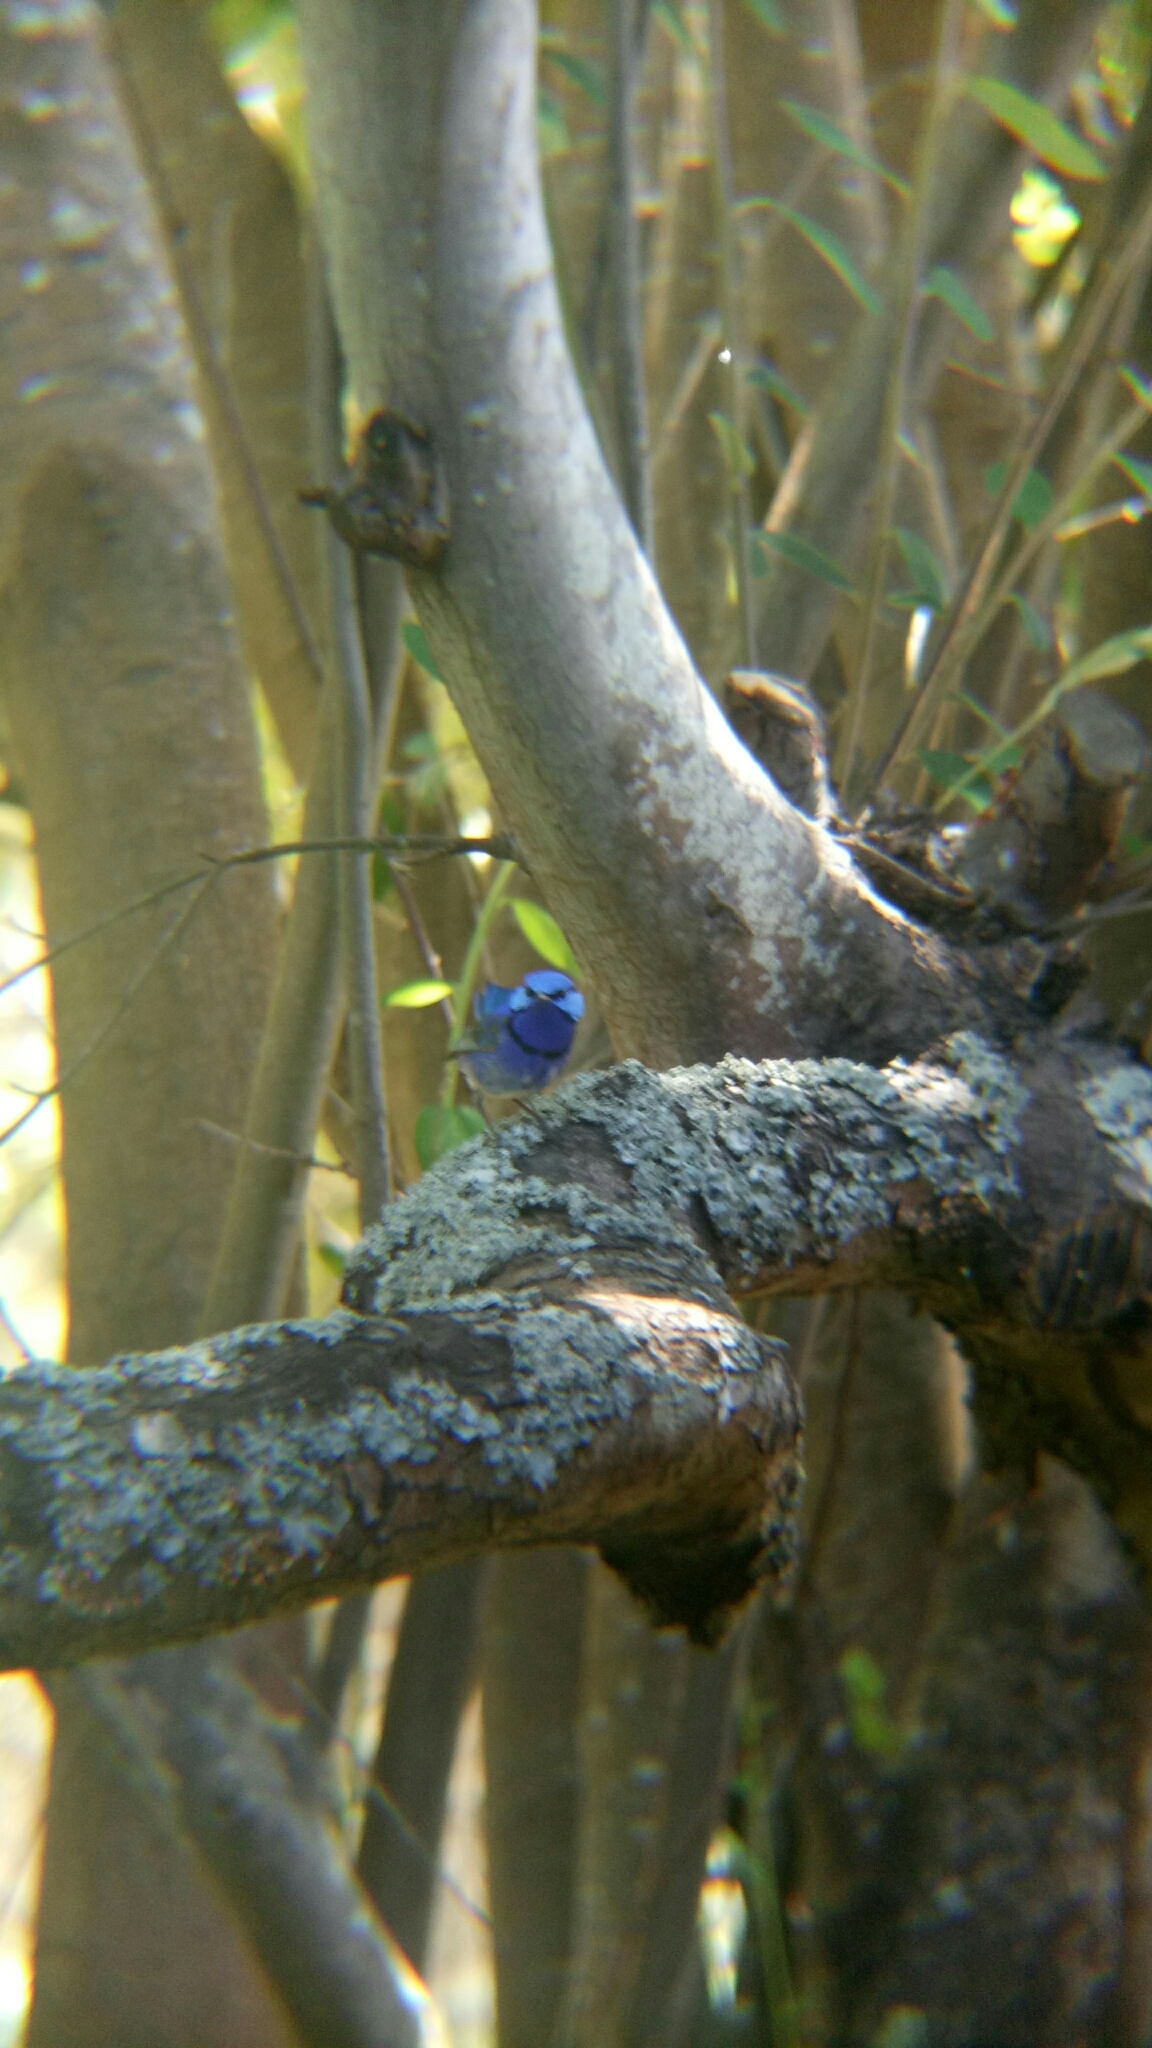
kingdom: Animalia
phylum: Chordata
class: Aves
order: Passeriformes
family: Maluridae
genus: Malurus
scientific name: Malurus splendens
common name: Splendid fairywren
